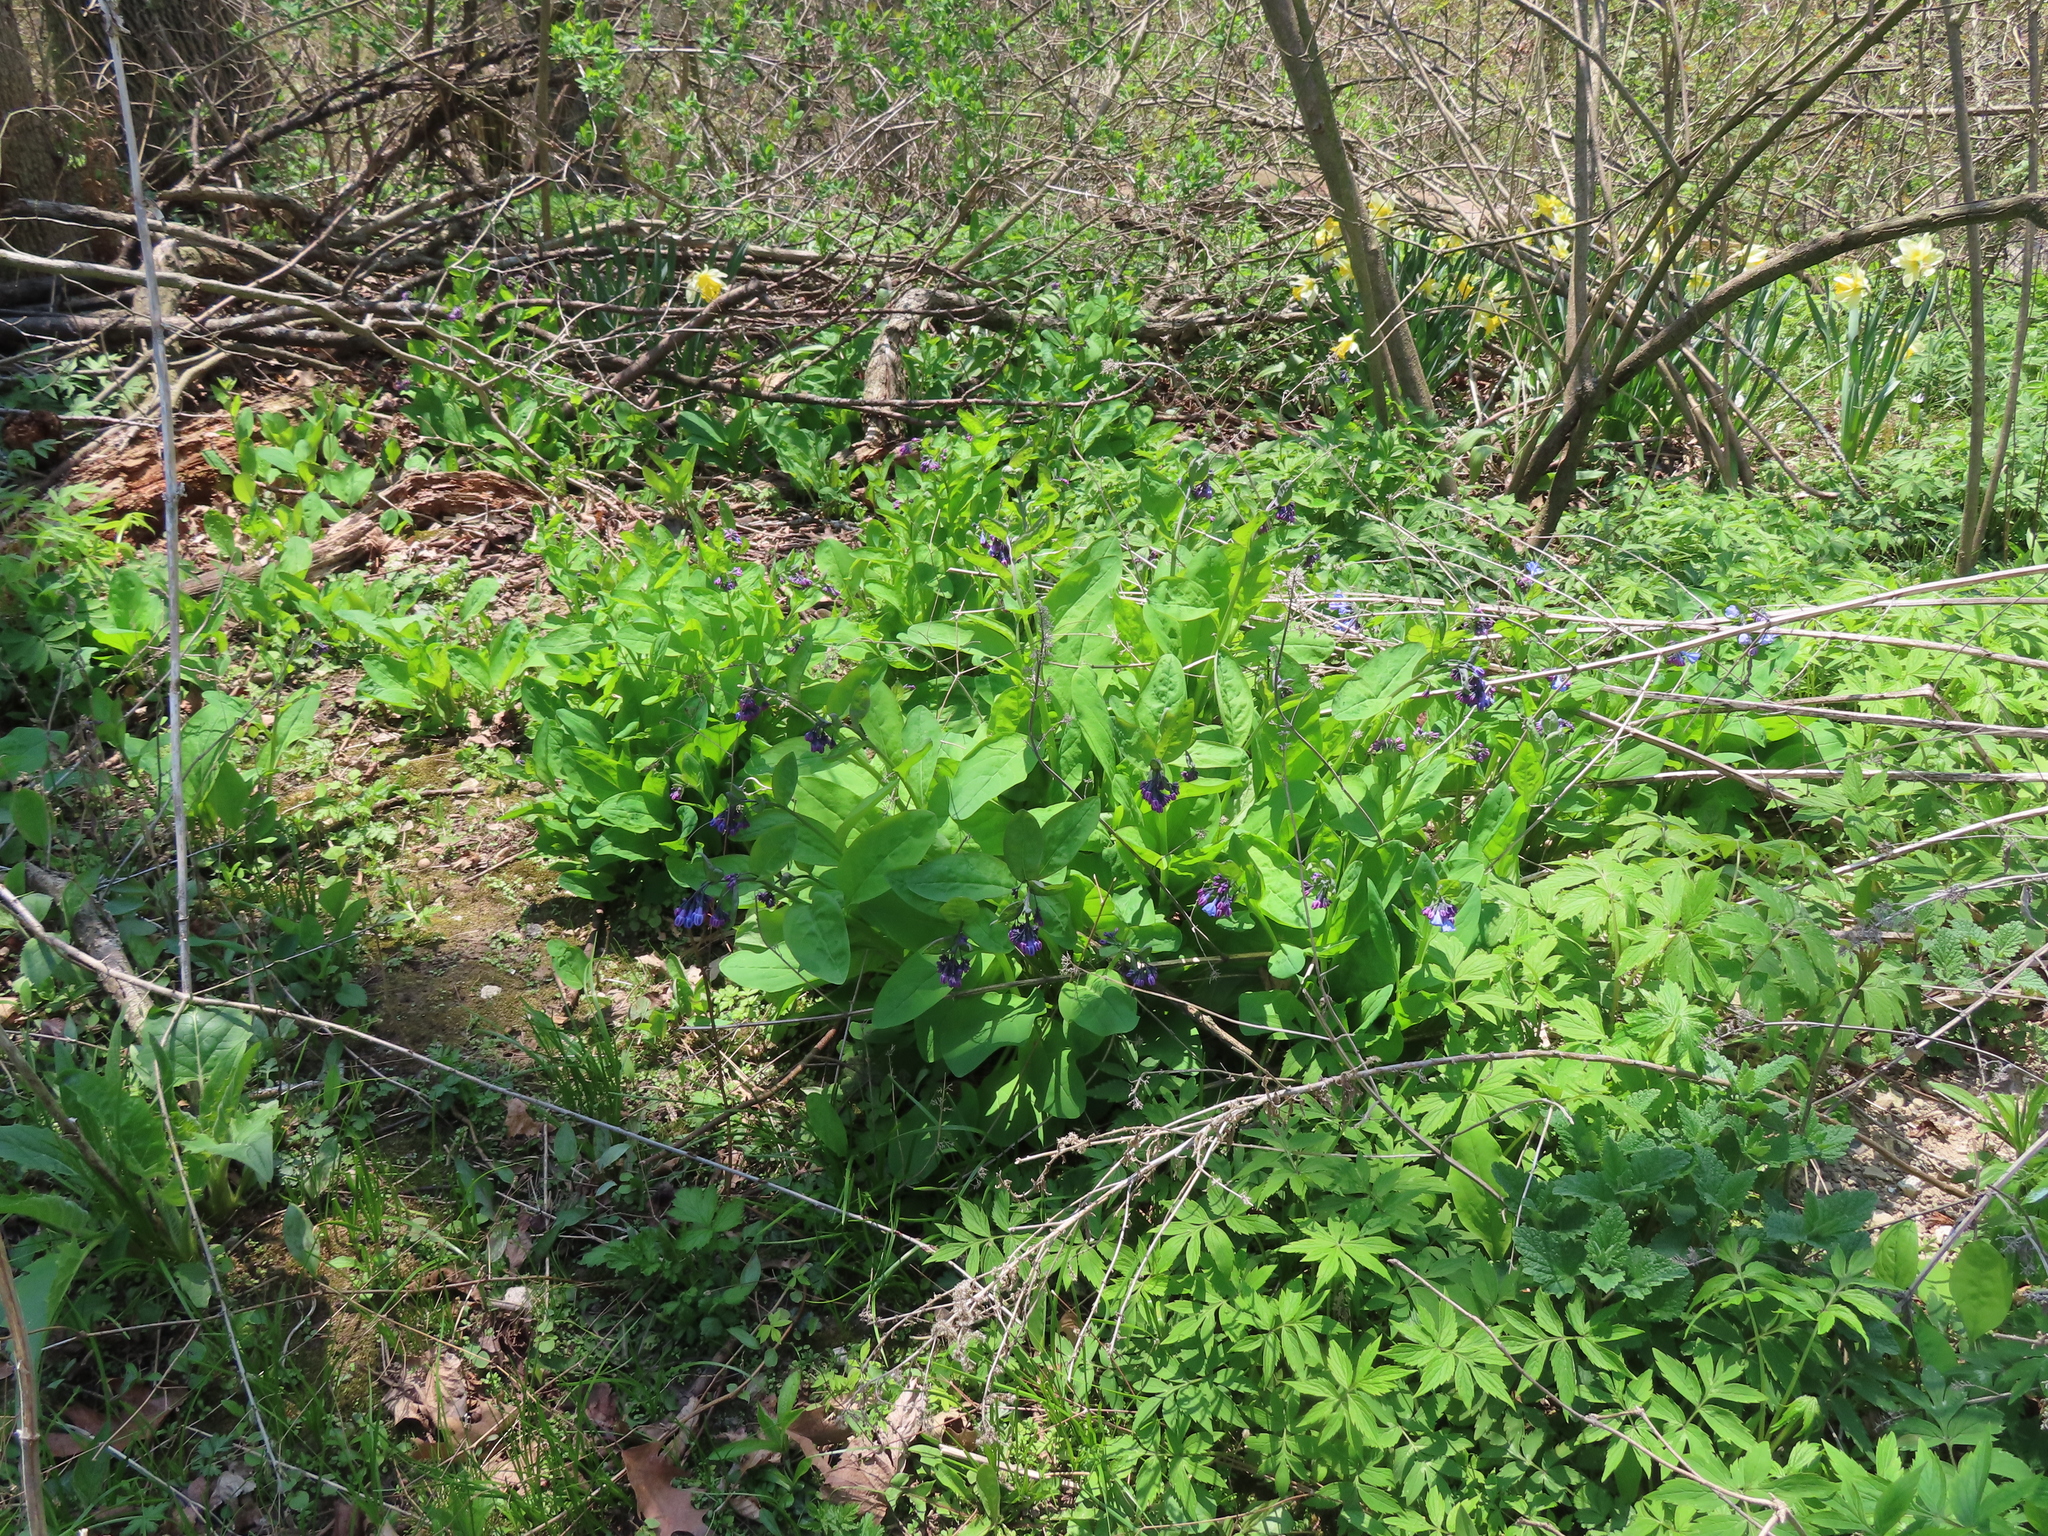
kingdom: Plantae
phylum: Tracheophyta
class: Magnoliopsida
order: Boraginales
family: Boraginaceae
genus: Mertensia
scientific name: Mertensia virginica
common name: Virginia bluebells
